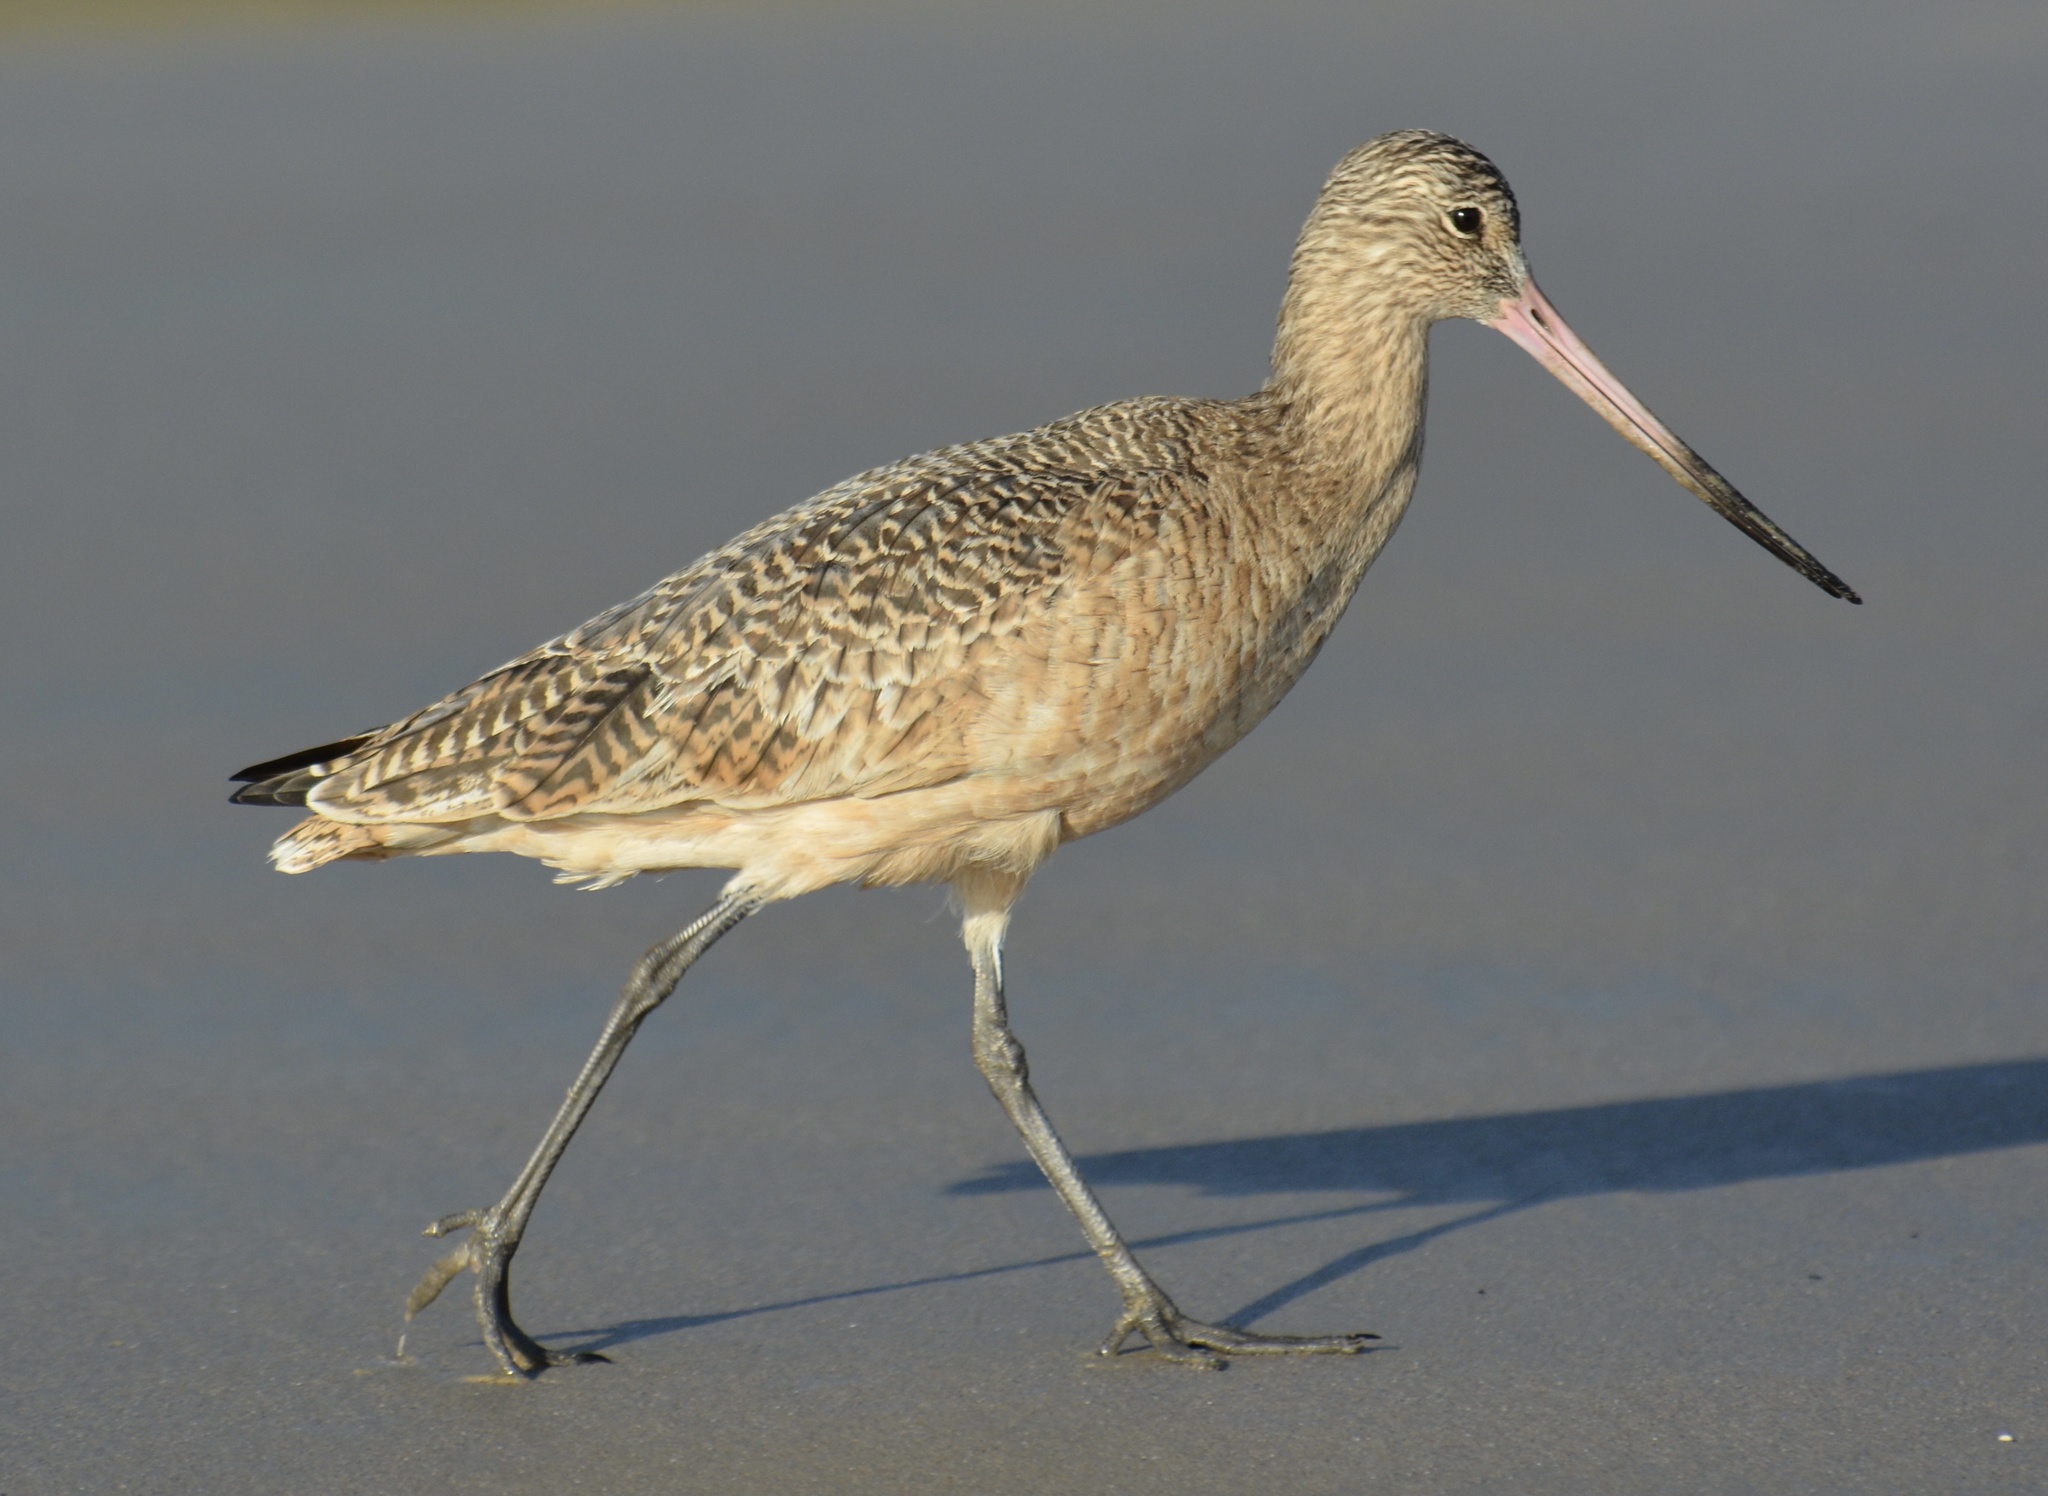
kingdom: Animalia
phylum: Chordata
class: Aves
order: Charadriiformes
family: Scolopacidae
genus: Limosa
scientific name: Limosa fedoa
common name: Marbled godwit
